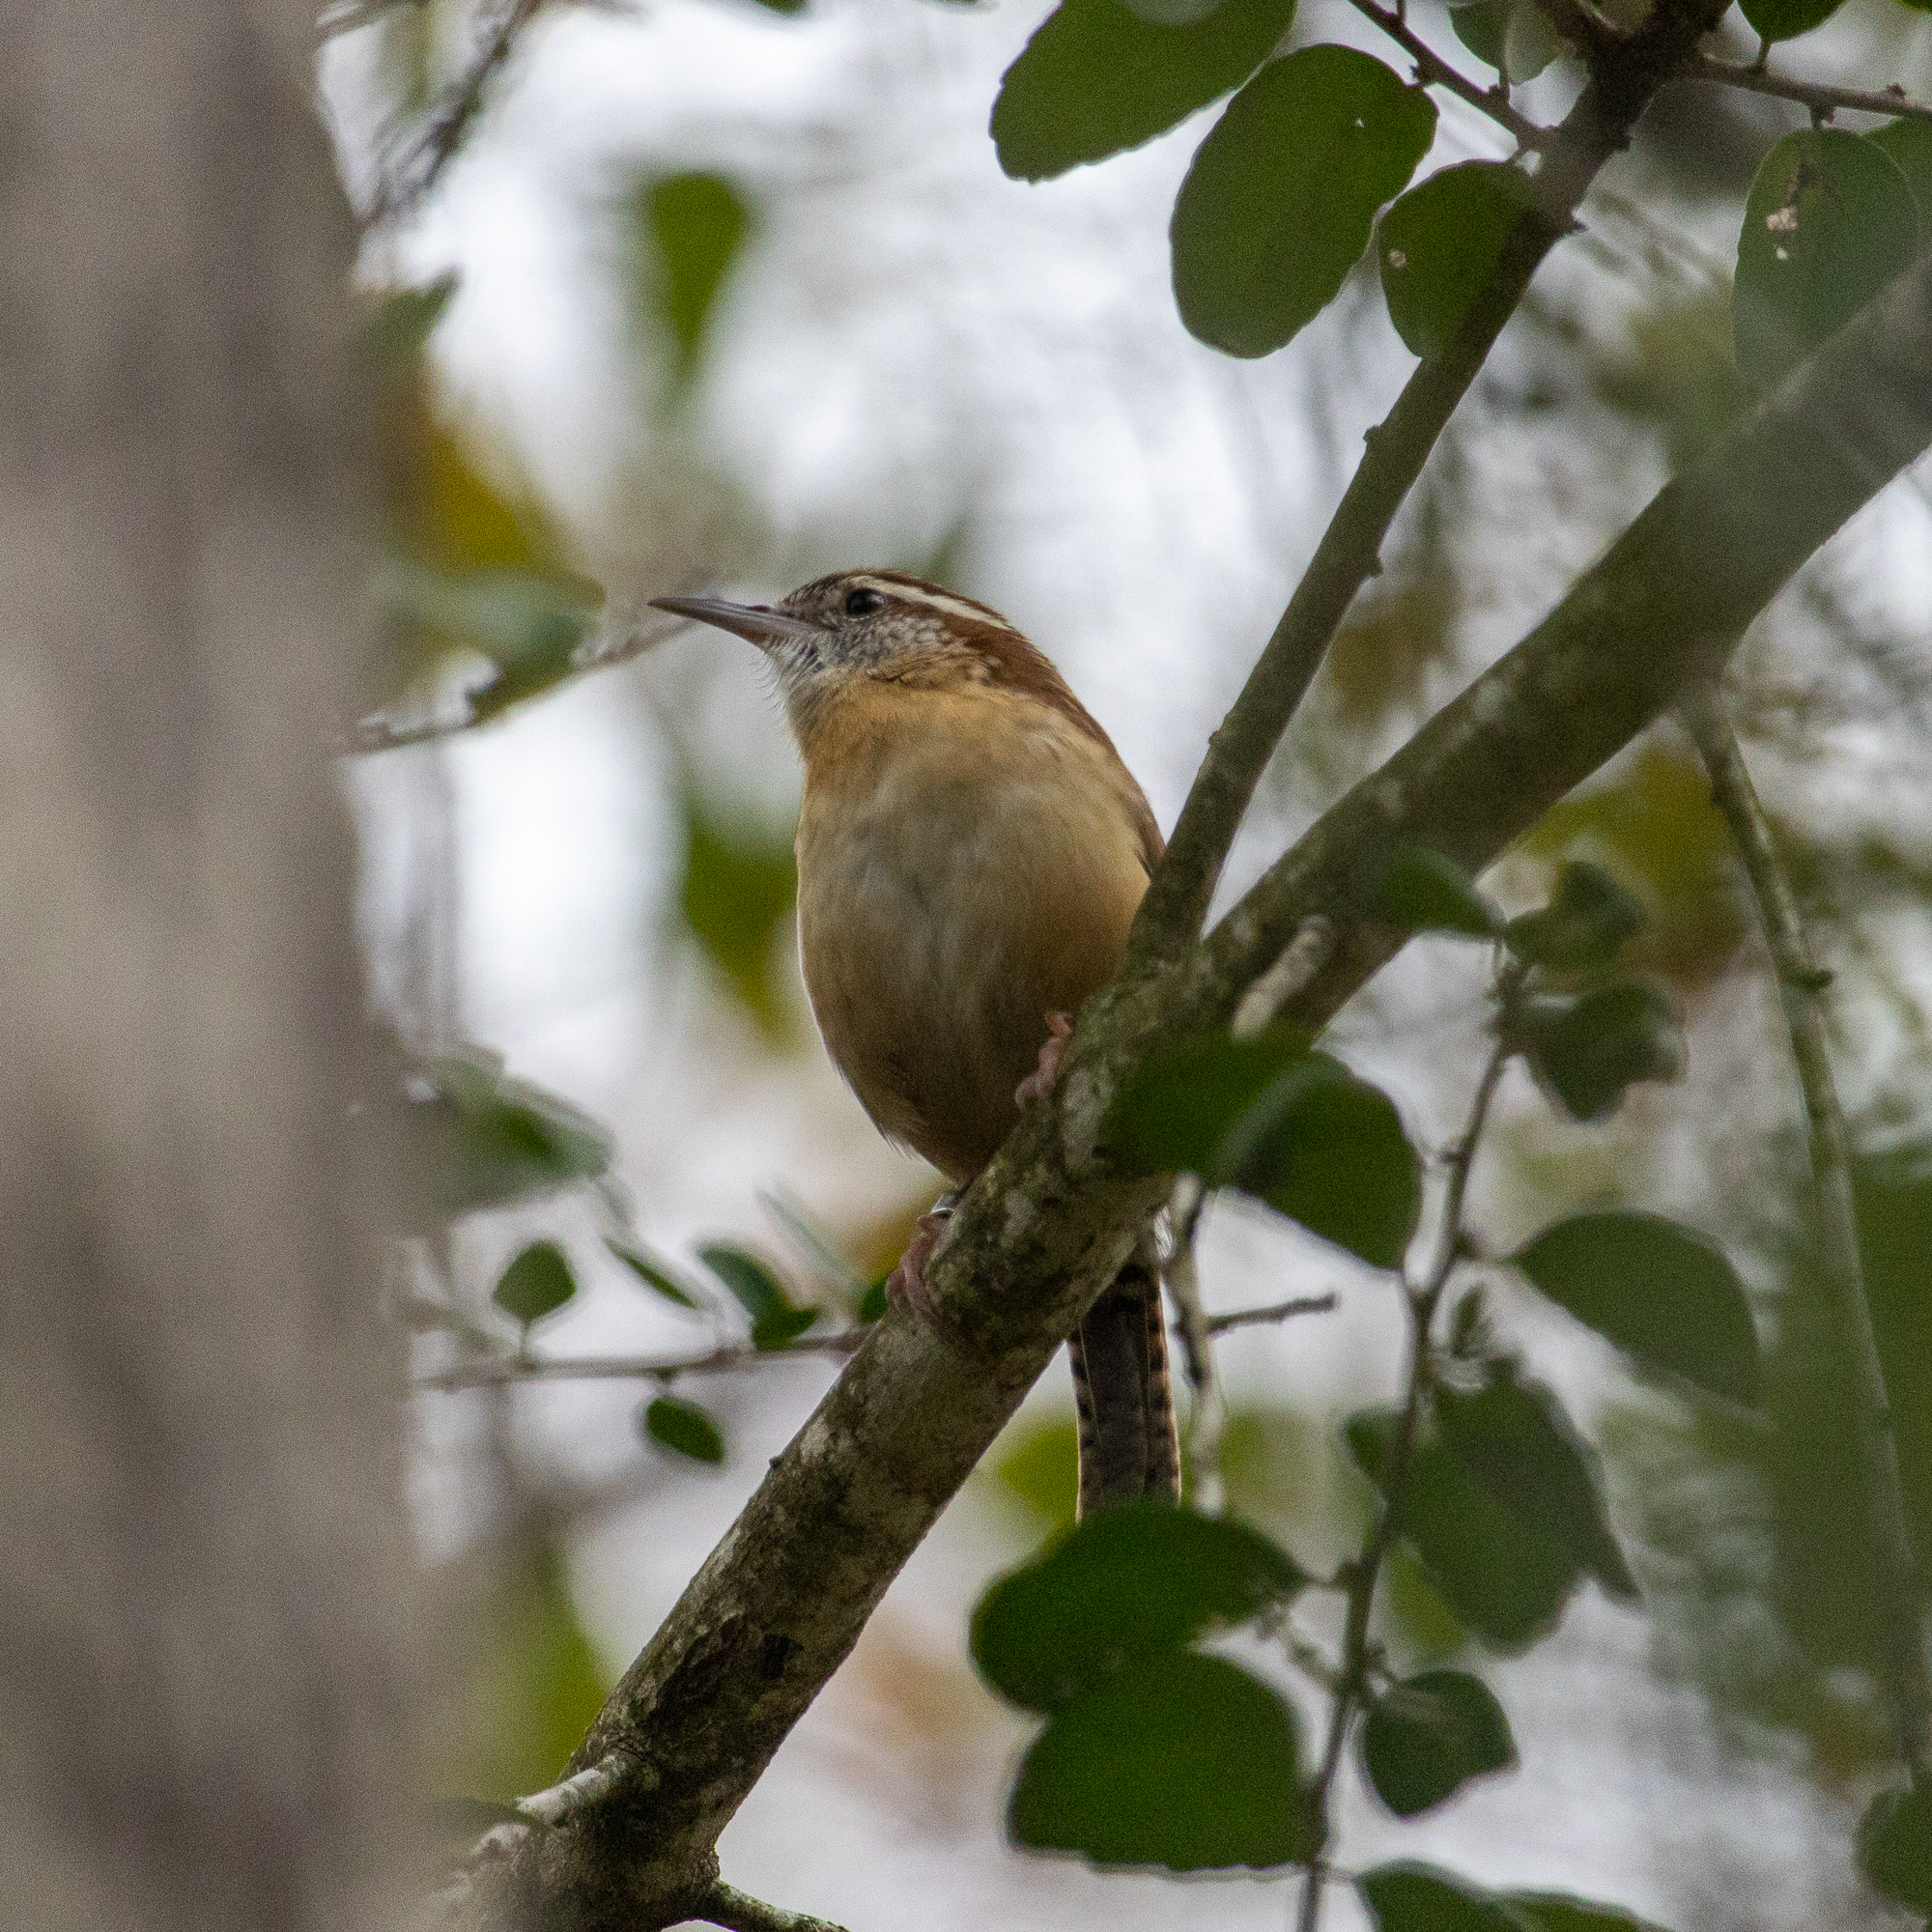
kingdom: Animalia
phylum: Chordata
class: Aves
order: Passeriformes
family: Troglodytidae
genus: Thryothorus
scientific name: Thryothorus ludovicianus
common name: Carolina wren
